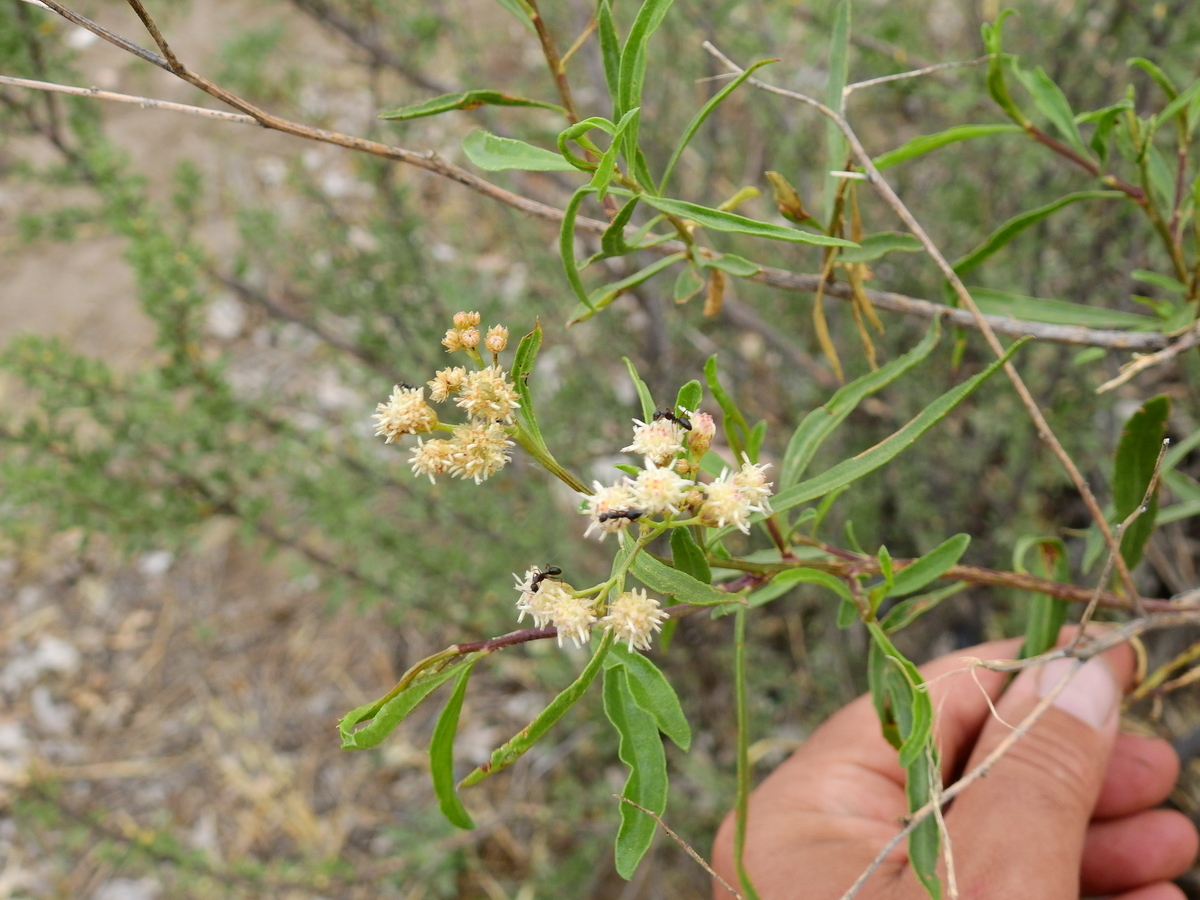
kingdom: Plantae
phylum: Tracheophyta
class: Magnoliopsida
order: Asterales
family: Asteraceae
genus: Baccharis
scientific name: Baccharis salicifolia
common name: Sticky baccharis
